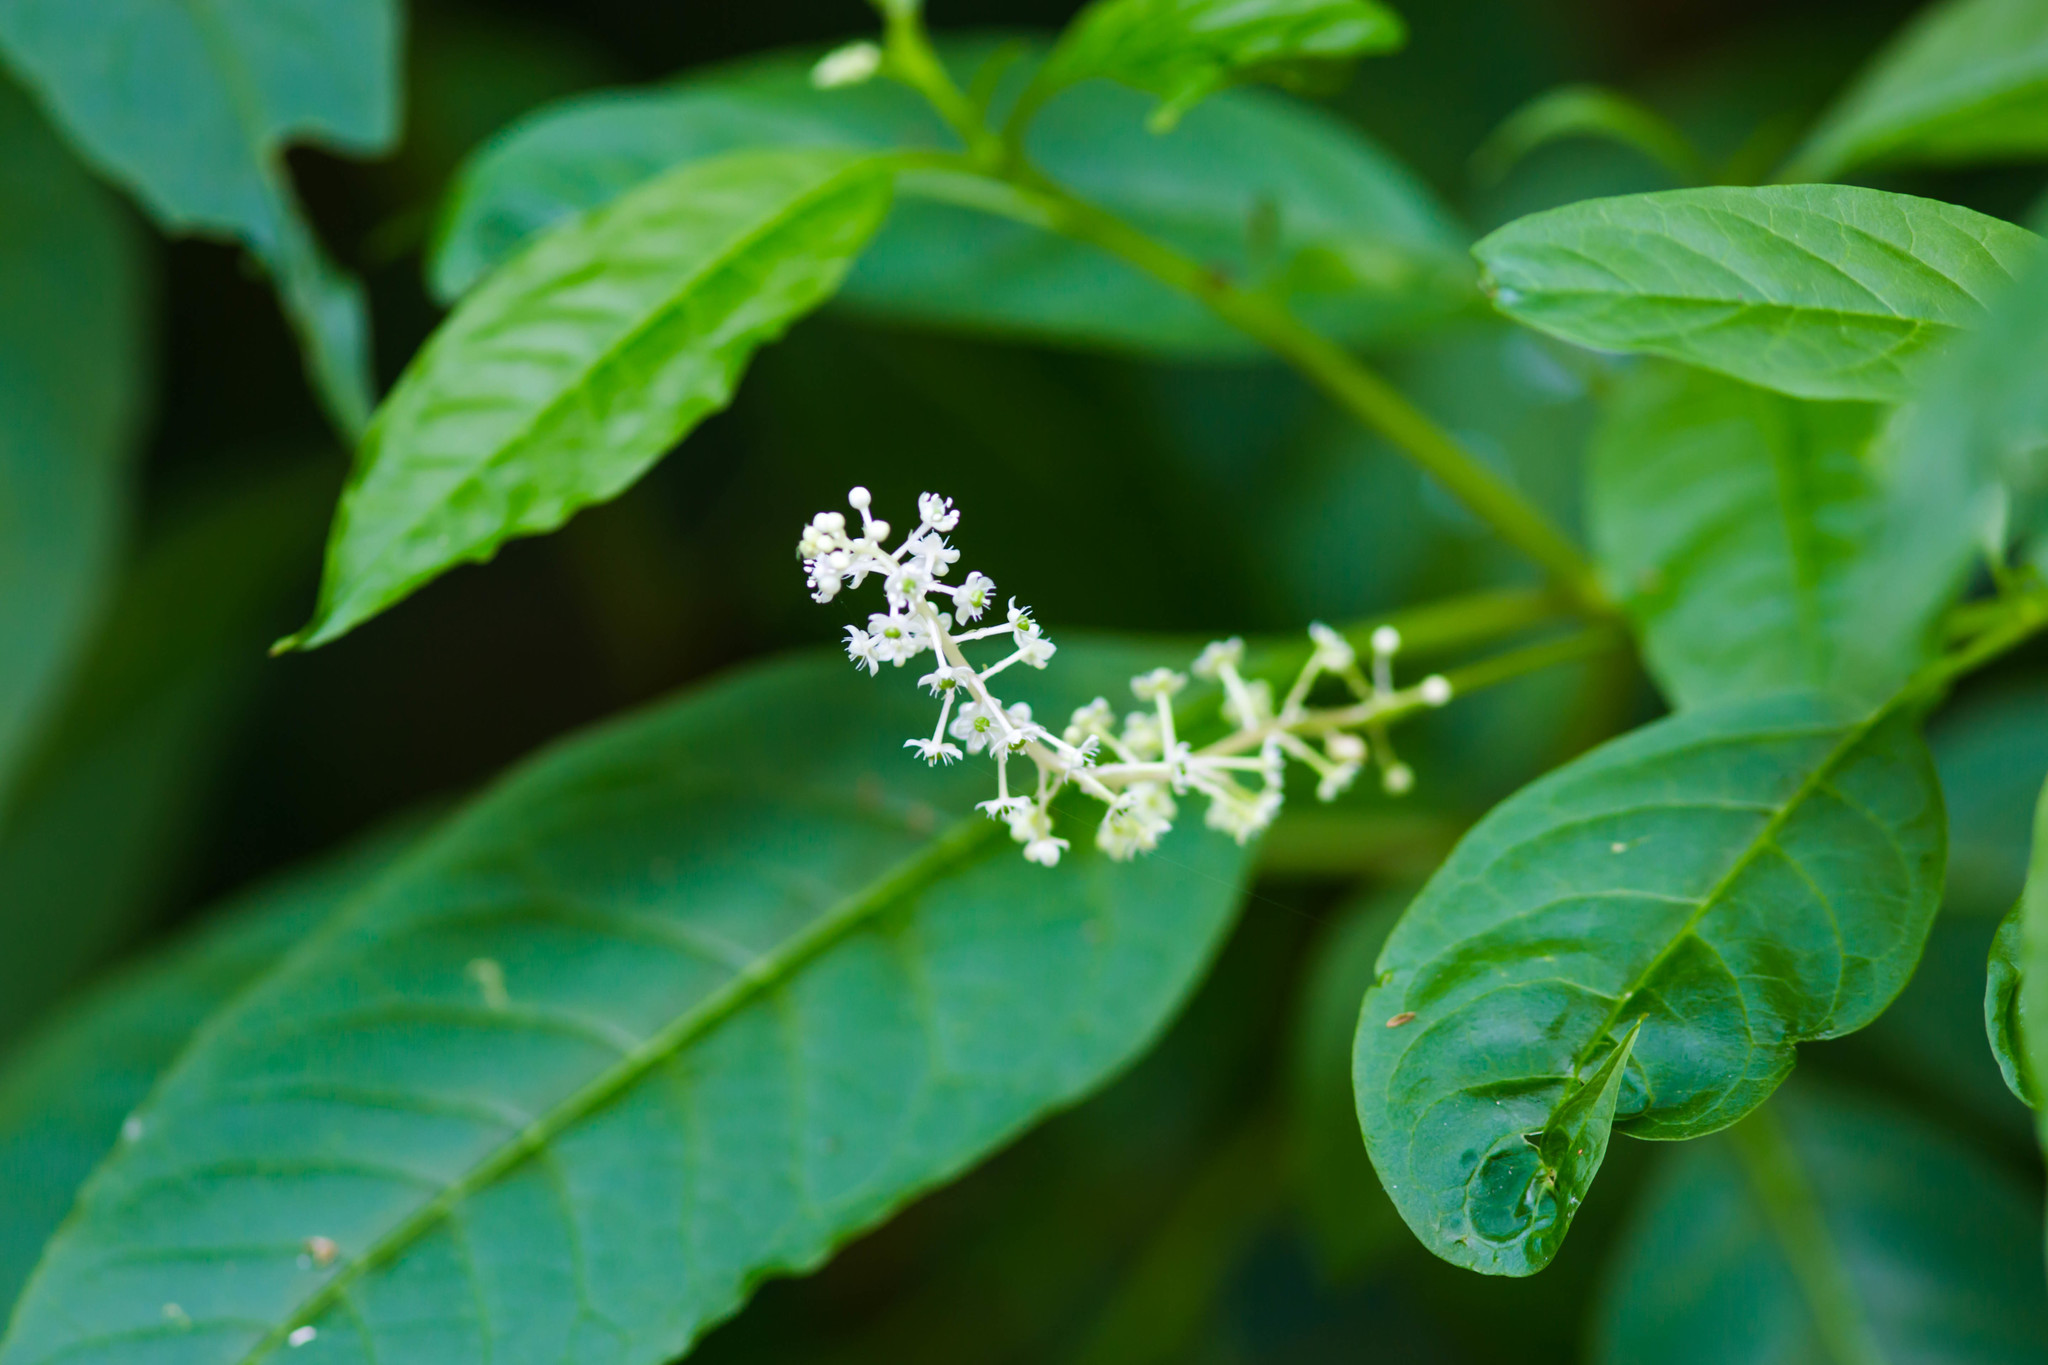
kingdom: Plantae
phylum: Tracheophyta
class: Magnoliopsida
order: Caryophyllales
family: Phytolaccaceae
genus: Phytolacca
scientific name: Phytolacca americana
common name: American pokeweed
